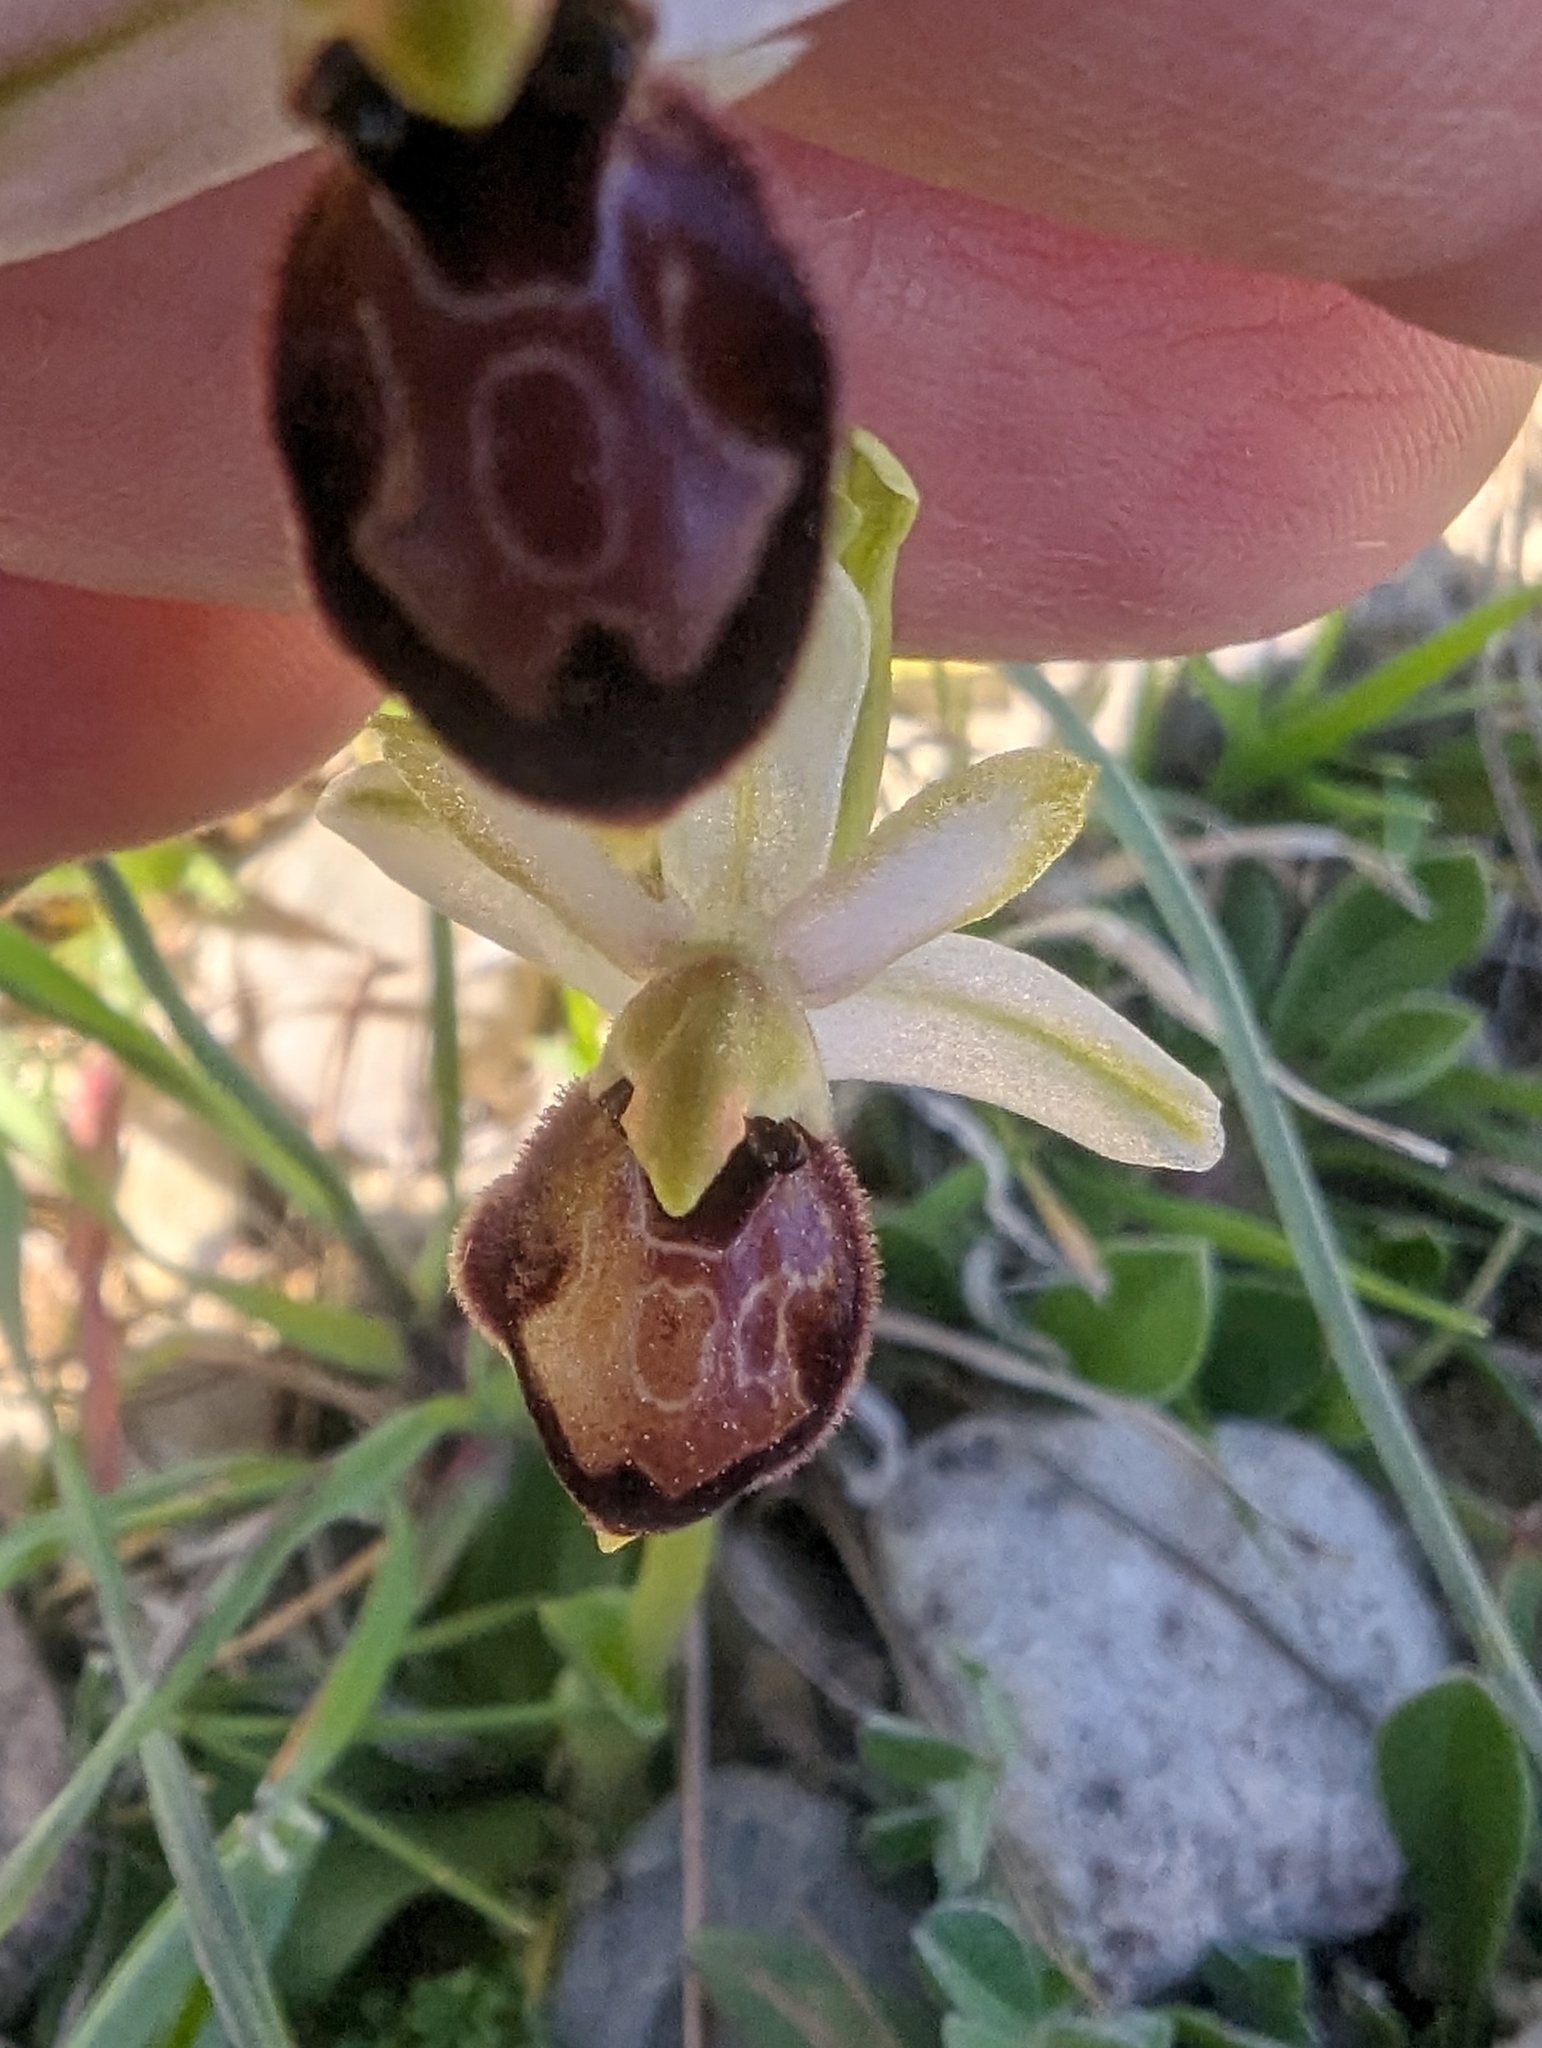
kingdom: Plantae
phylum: Tracheophyta
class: Liliopsida
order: Asparagales
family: Orchidaceae
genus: Ophrys
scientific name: Ophrys sphegodes
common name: Early spider-orchid
